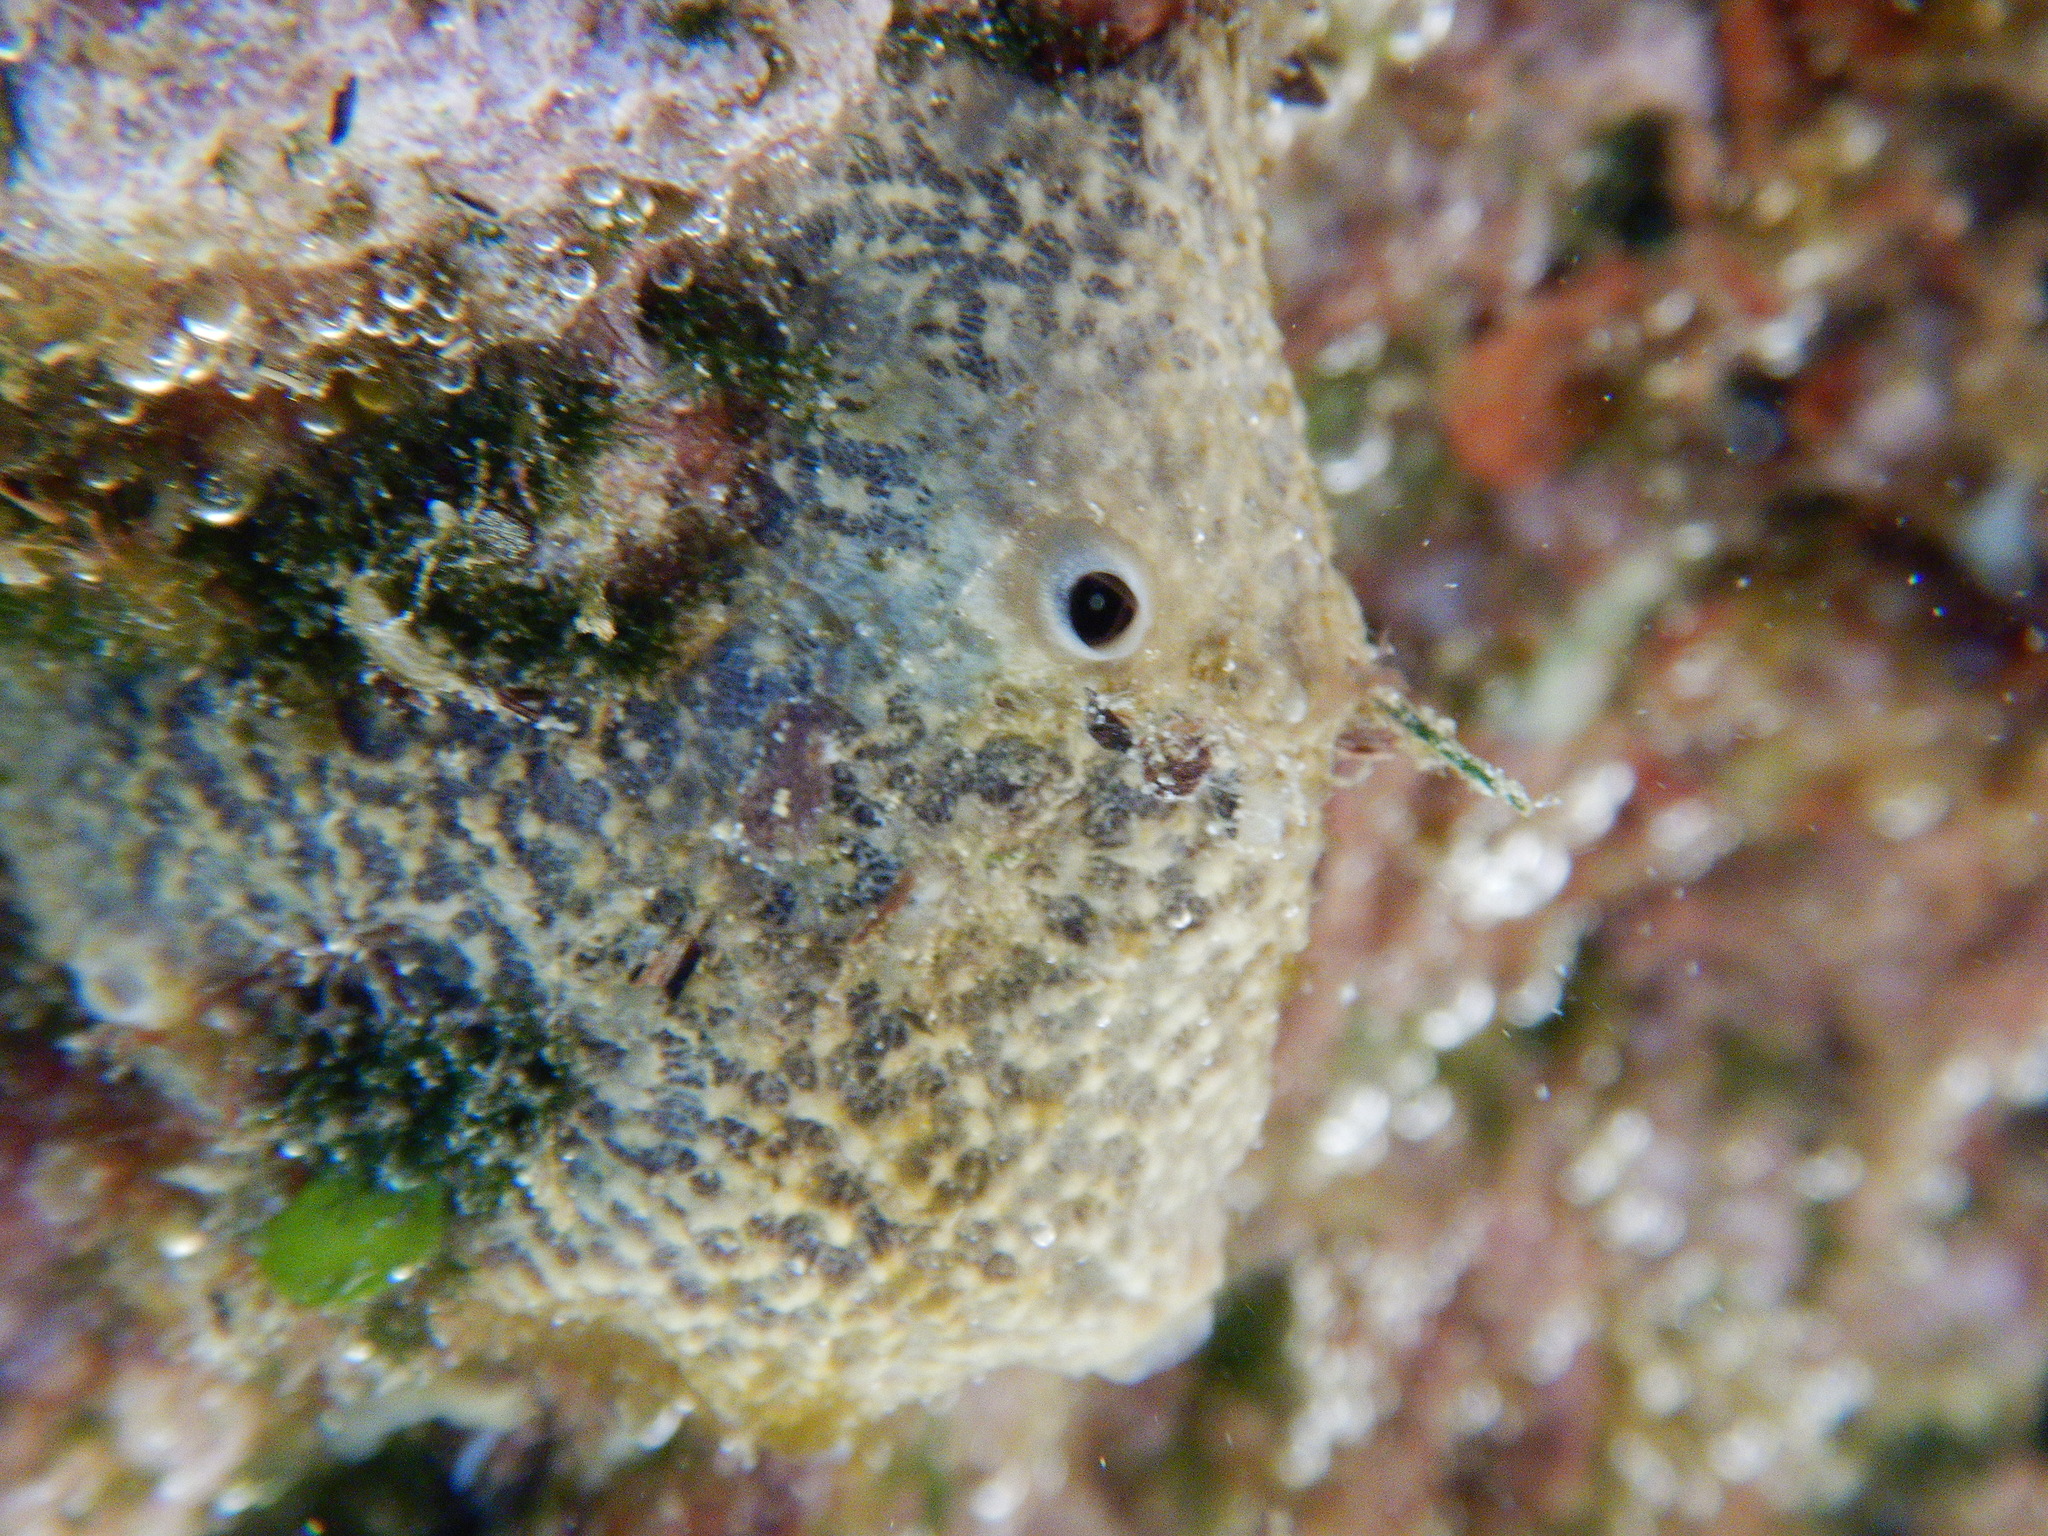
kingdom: Animalia
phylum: Porifera
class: Demospongiae
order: Dictyoceratida
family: Irciniidae
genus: Ircinia
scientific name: Ircinia variabilis
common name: Variable loggerhead sponge
